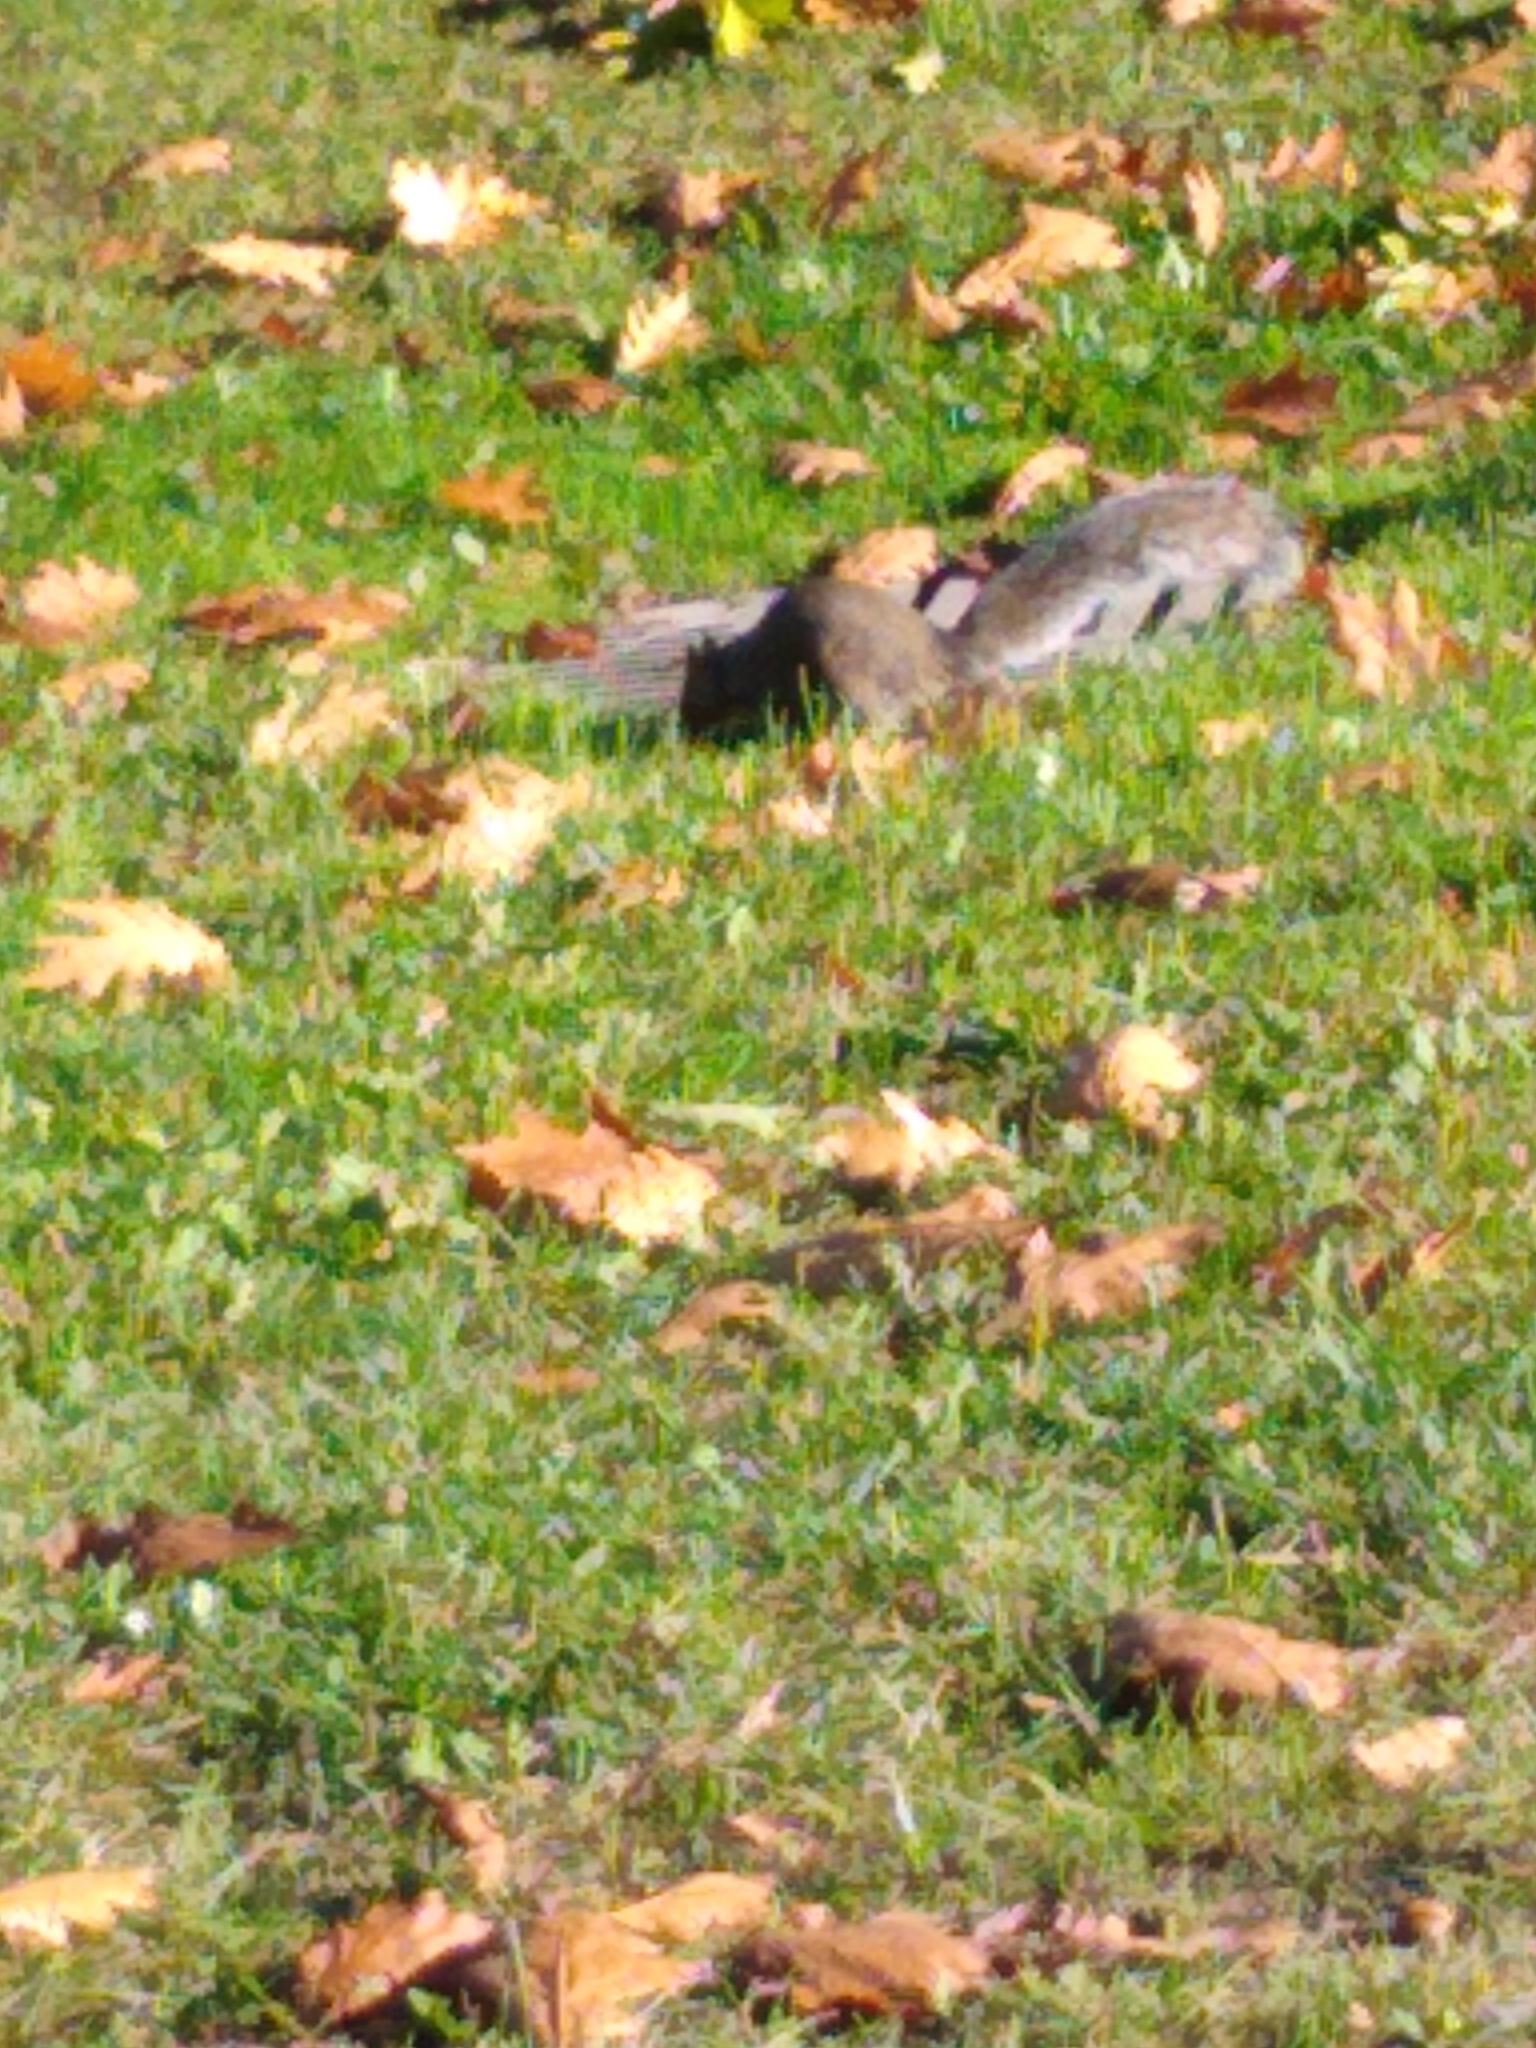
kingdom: Animalia
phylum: Chordata
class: Mammalia
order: Rodentia
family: Sciuridae
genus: Sciurus
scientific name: Sciurus carolinensis
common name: Eastern gray squirrel
